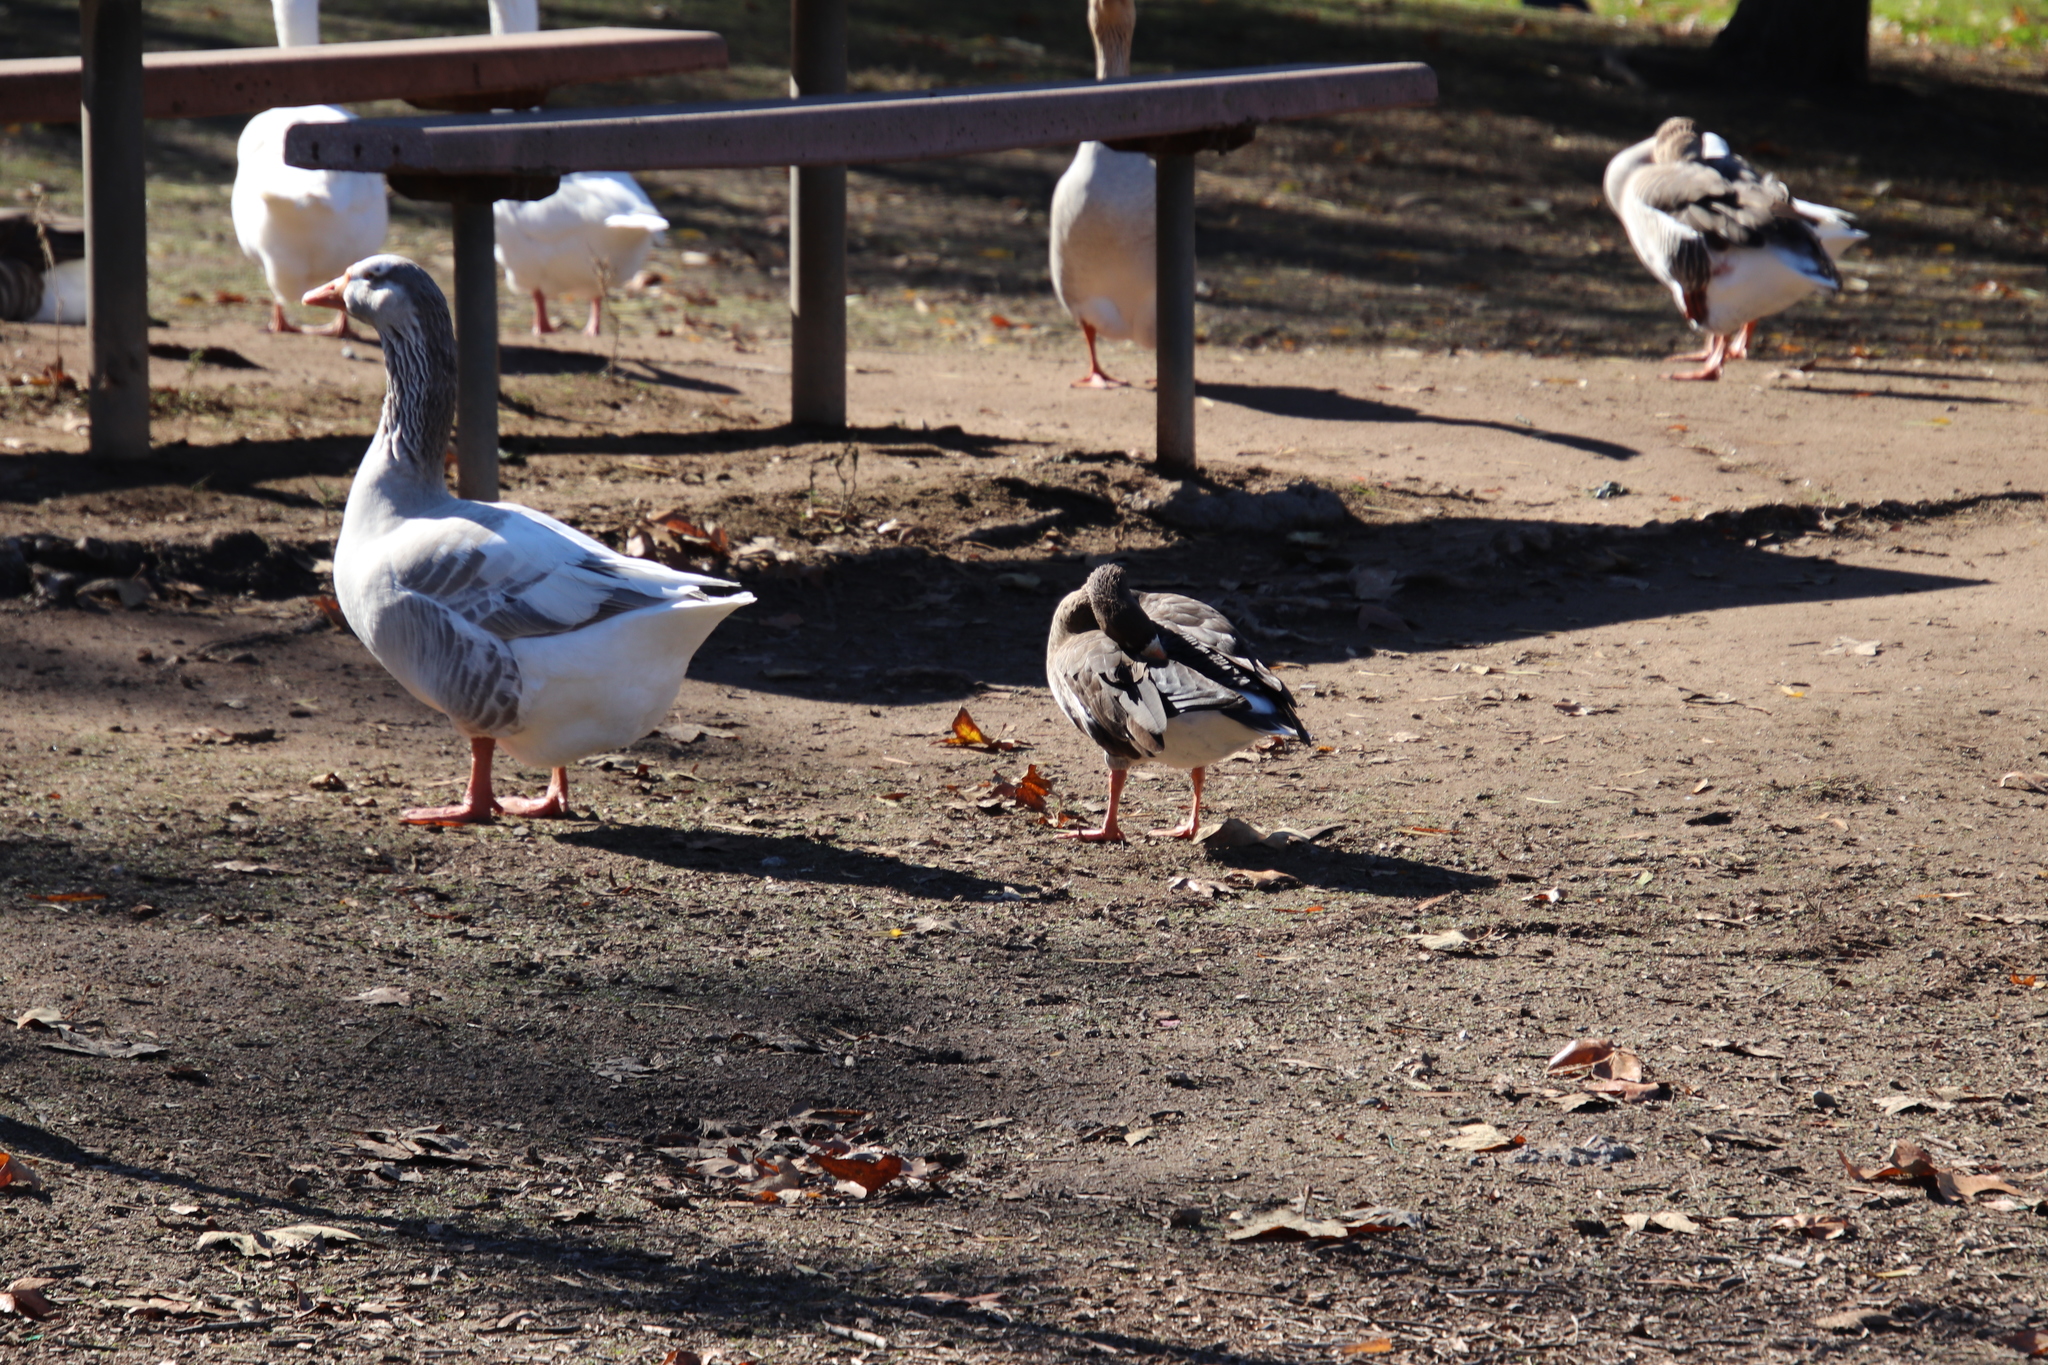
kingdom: Animalia
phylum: Chordata
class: Aves
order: Anseriformes
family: Anatidae
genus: Anser
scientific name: Anser albifrons
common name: Greater white-fronted goose
